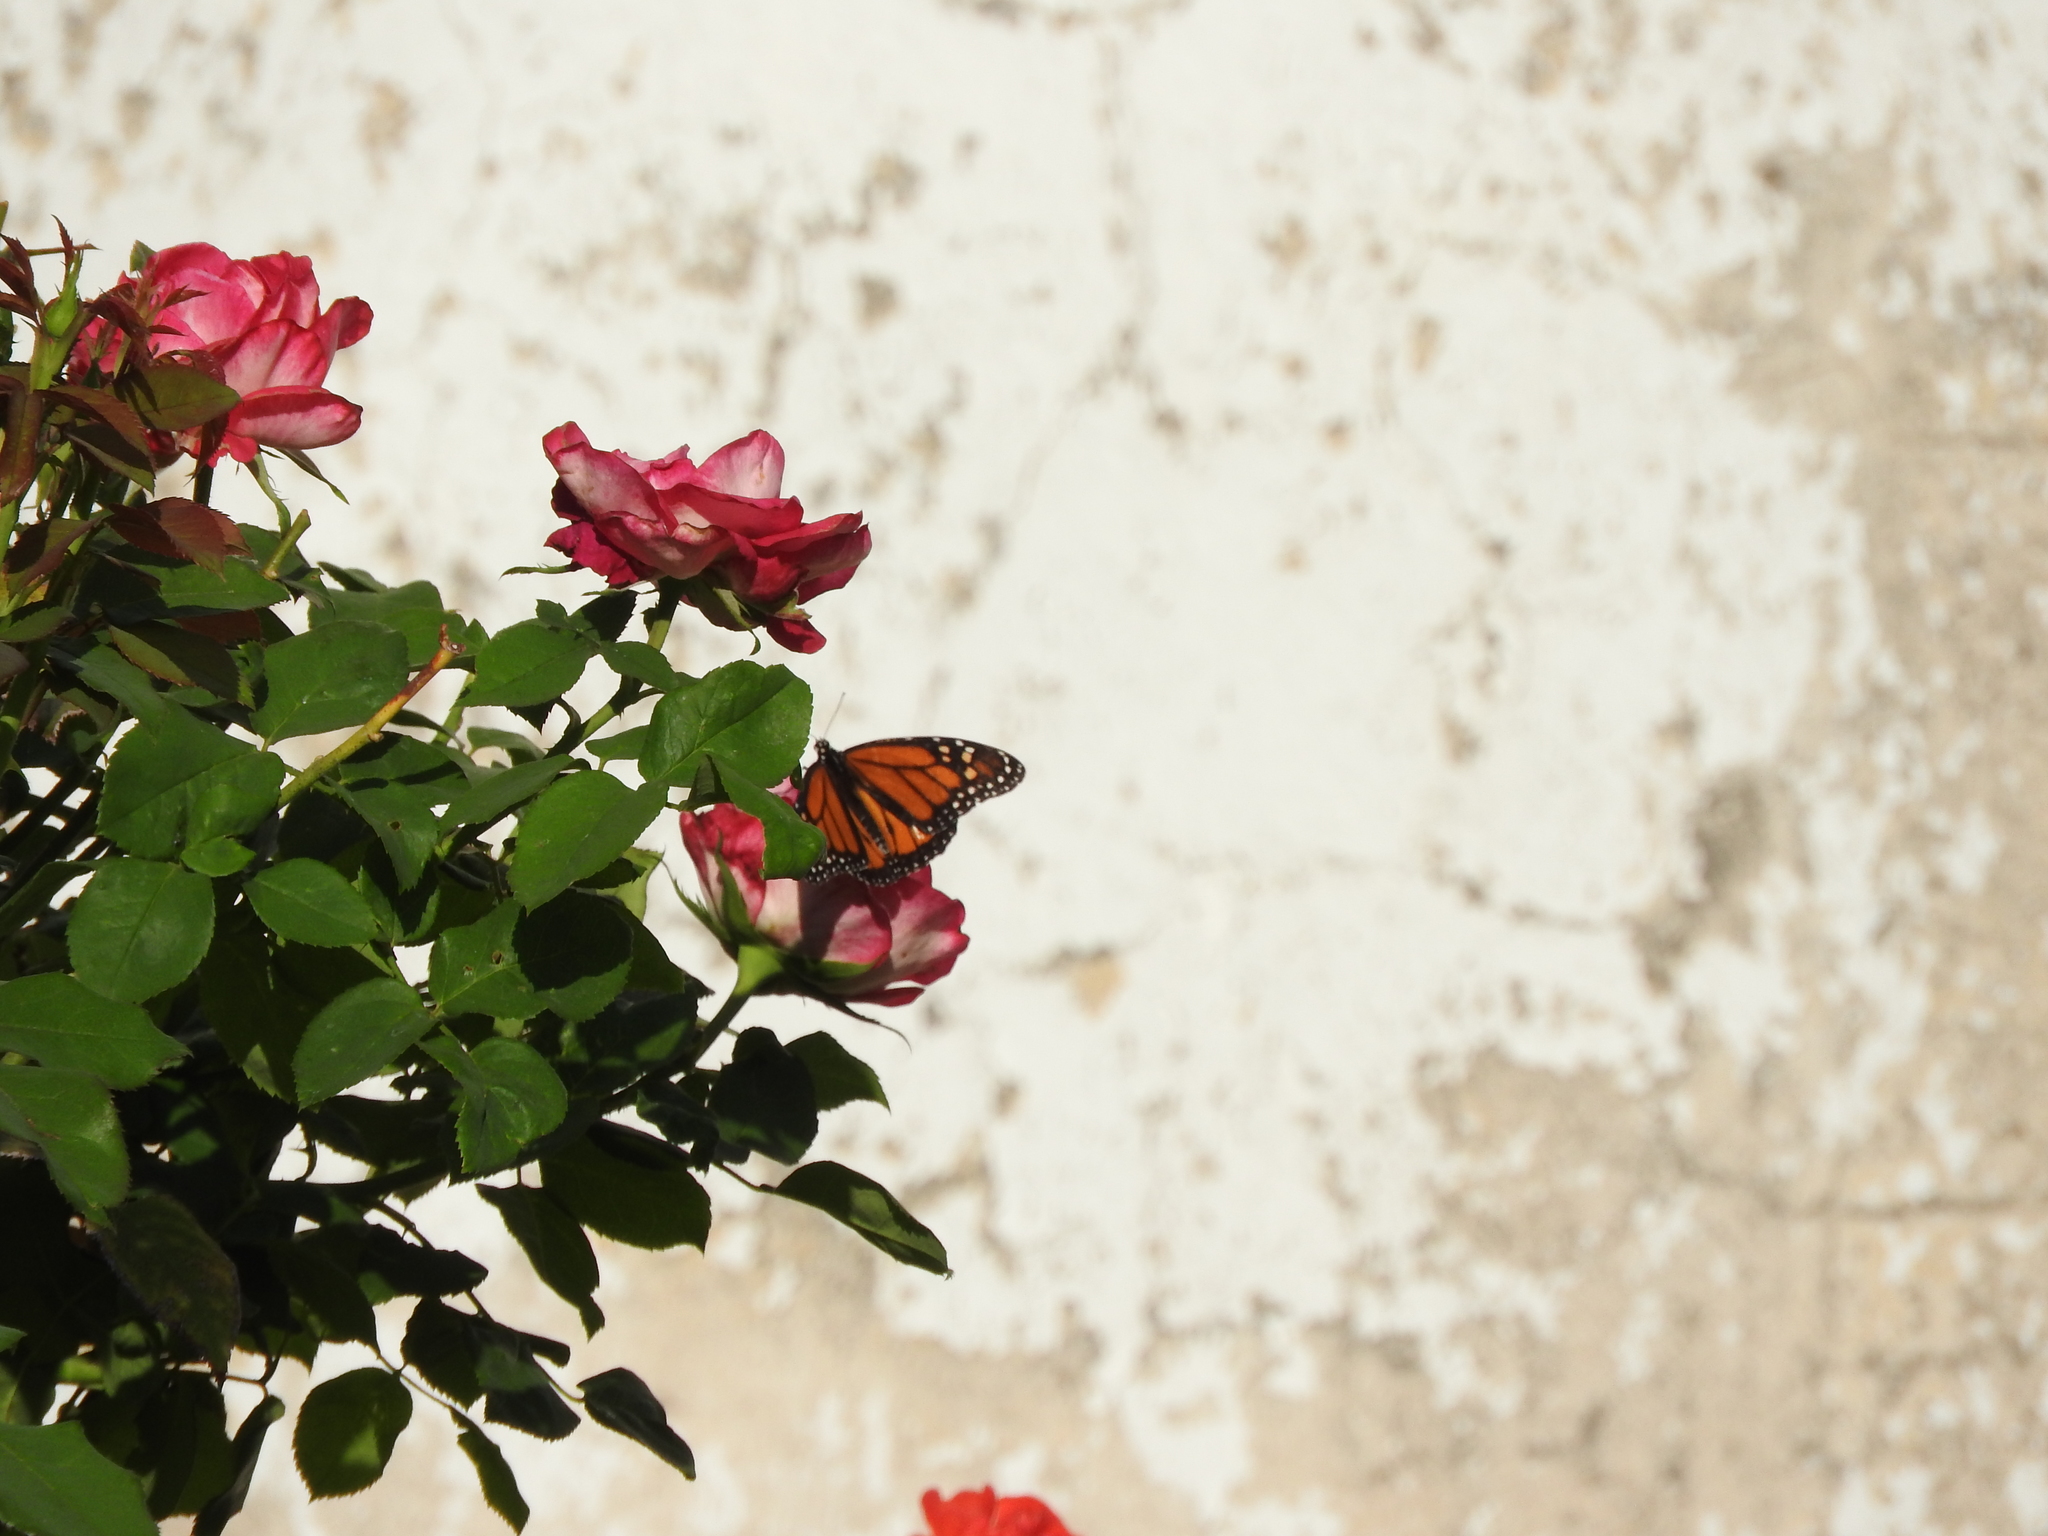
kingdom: Animalia
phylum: Arthropoda
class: Insecta
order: Lepidoptera
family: Nymphalidae
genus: Danaus
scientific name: Danaus plexippus
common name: Monarch
